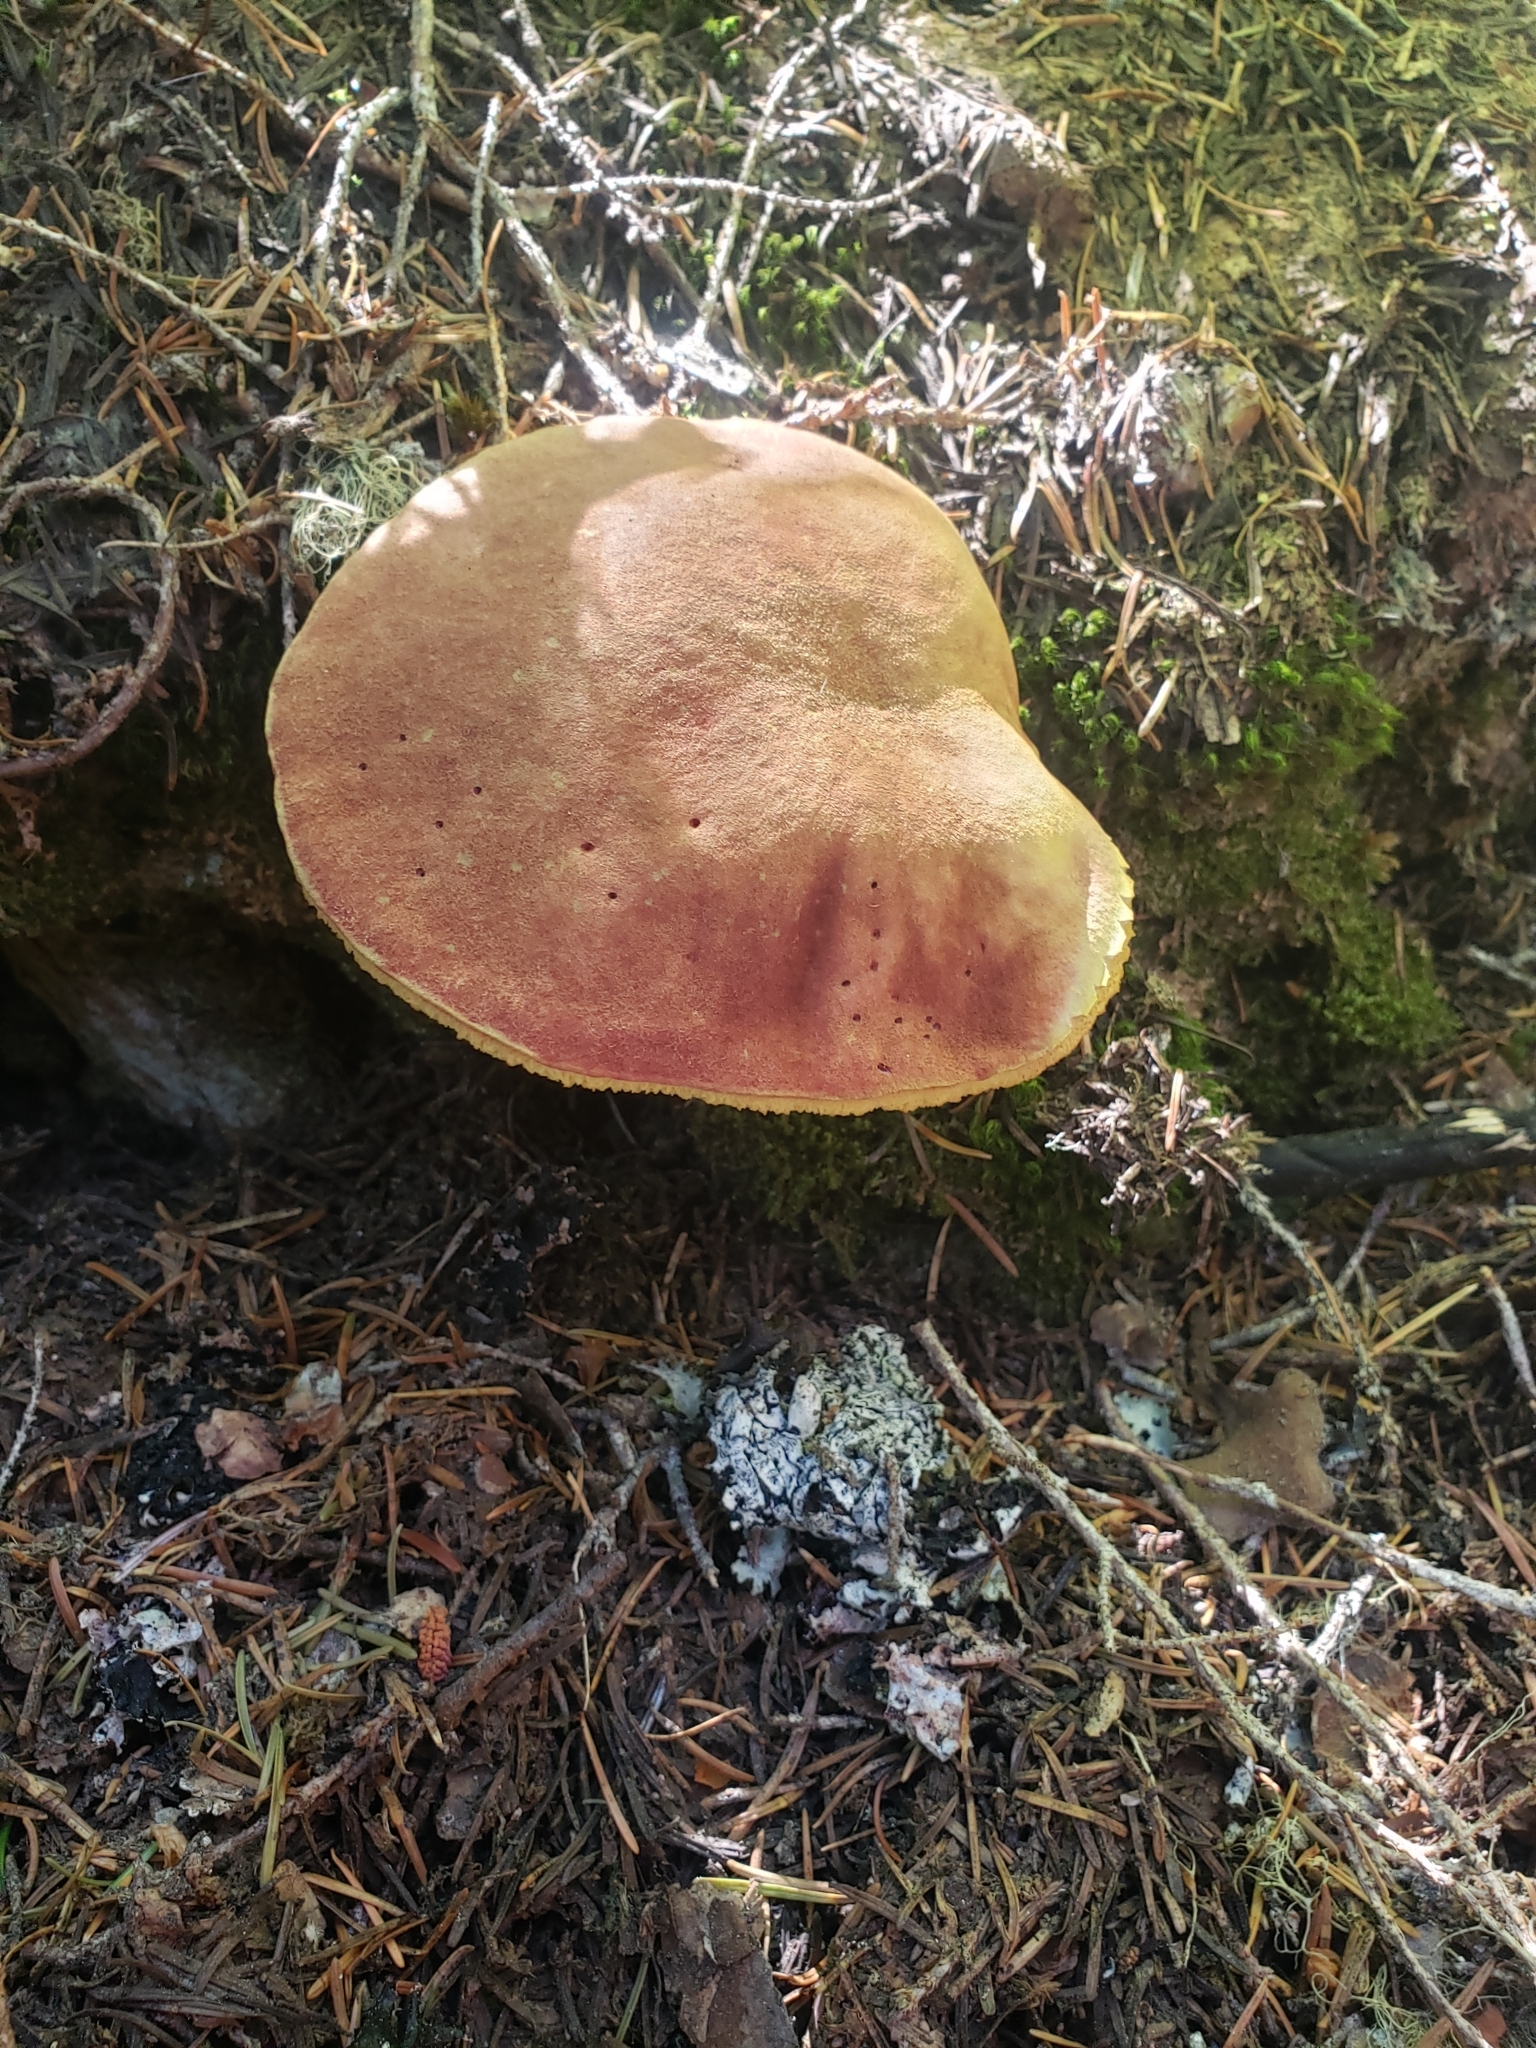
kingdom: Fungi
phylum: Basidiomycota
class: Agaricomycetes
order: Boletales
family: Boletaceae
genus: Boletus
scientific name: Boletus smithii
